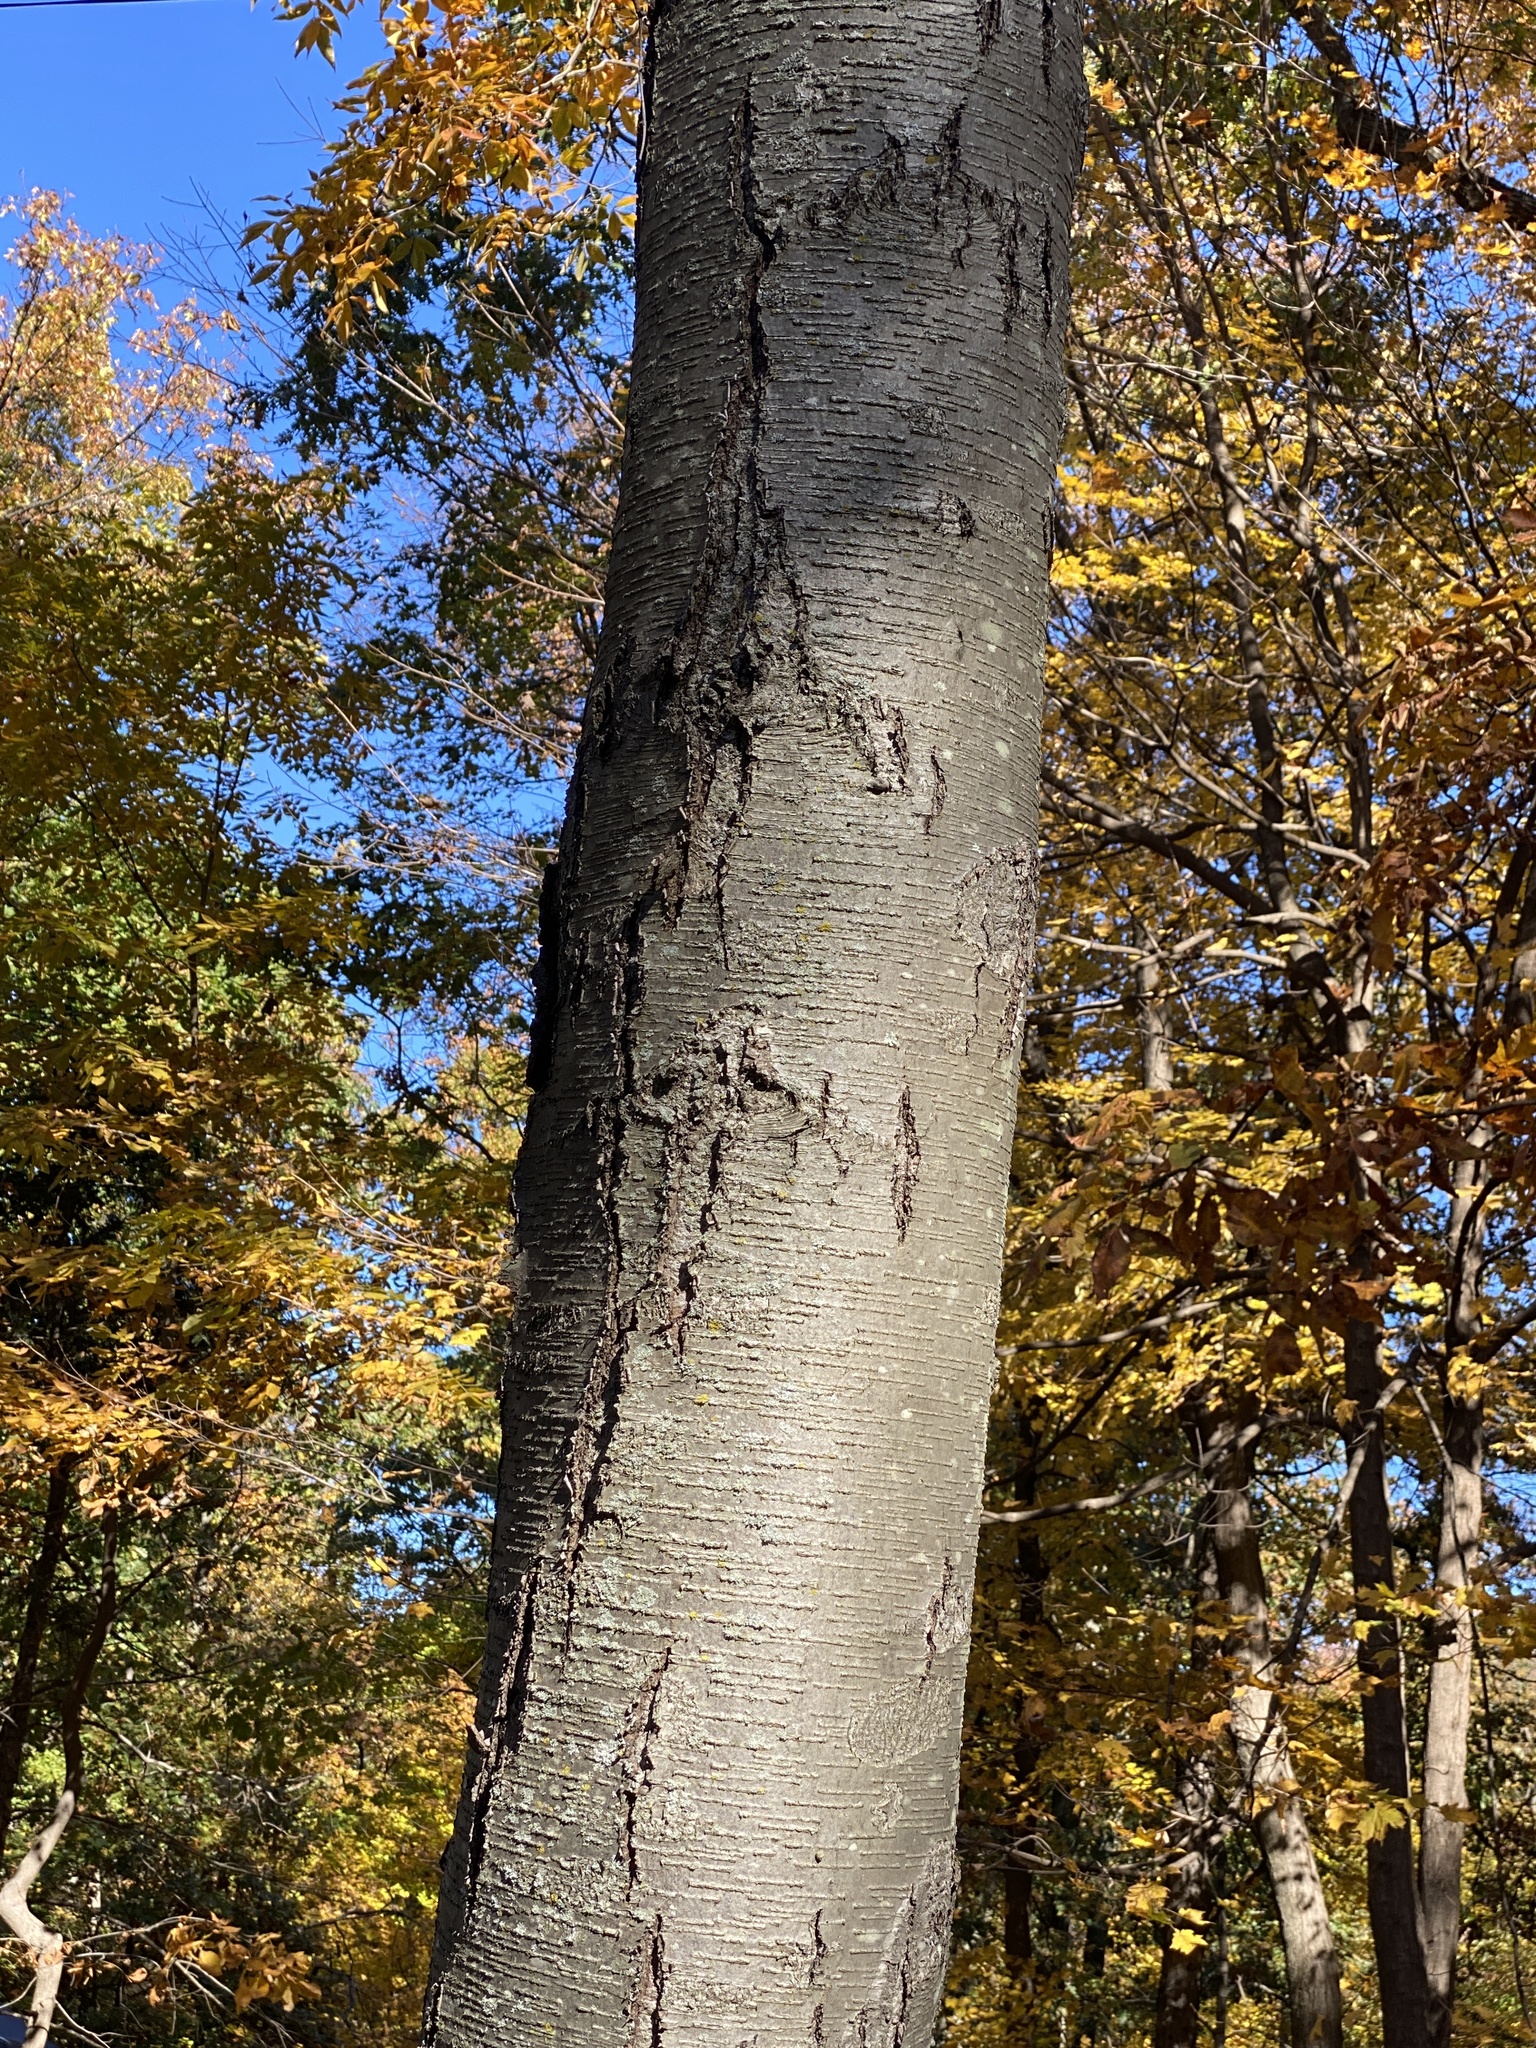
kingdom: Plantae
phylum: Tracheophyta
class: Magnoliopsida
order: Fagales
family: Betulaceae
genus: Betula
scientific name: Betula lenta
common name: Black birch
